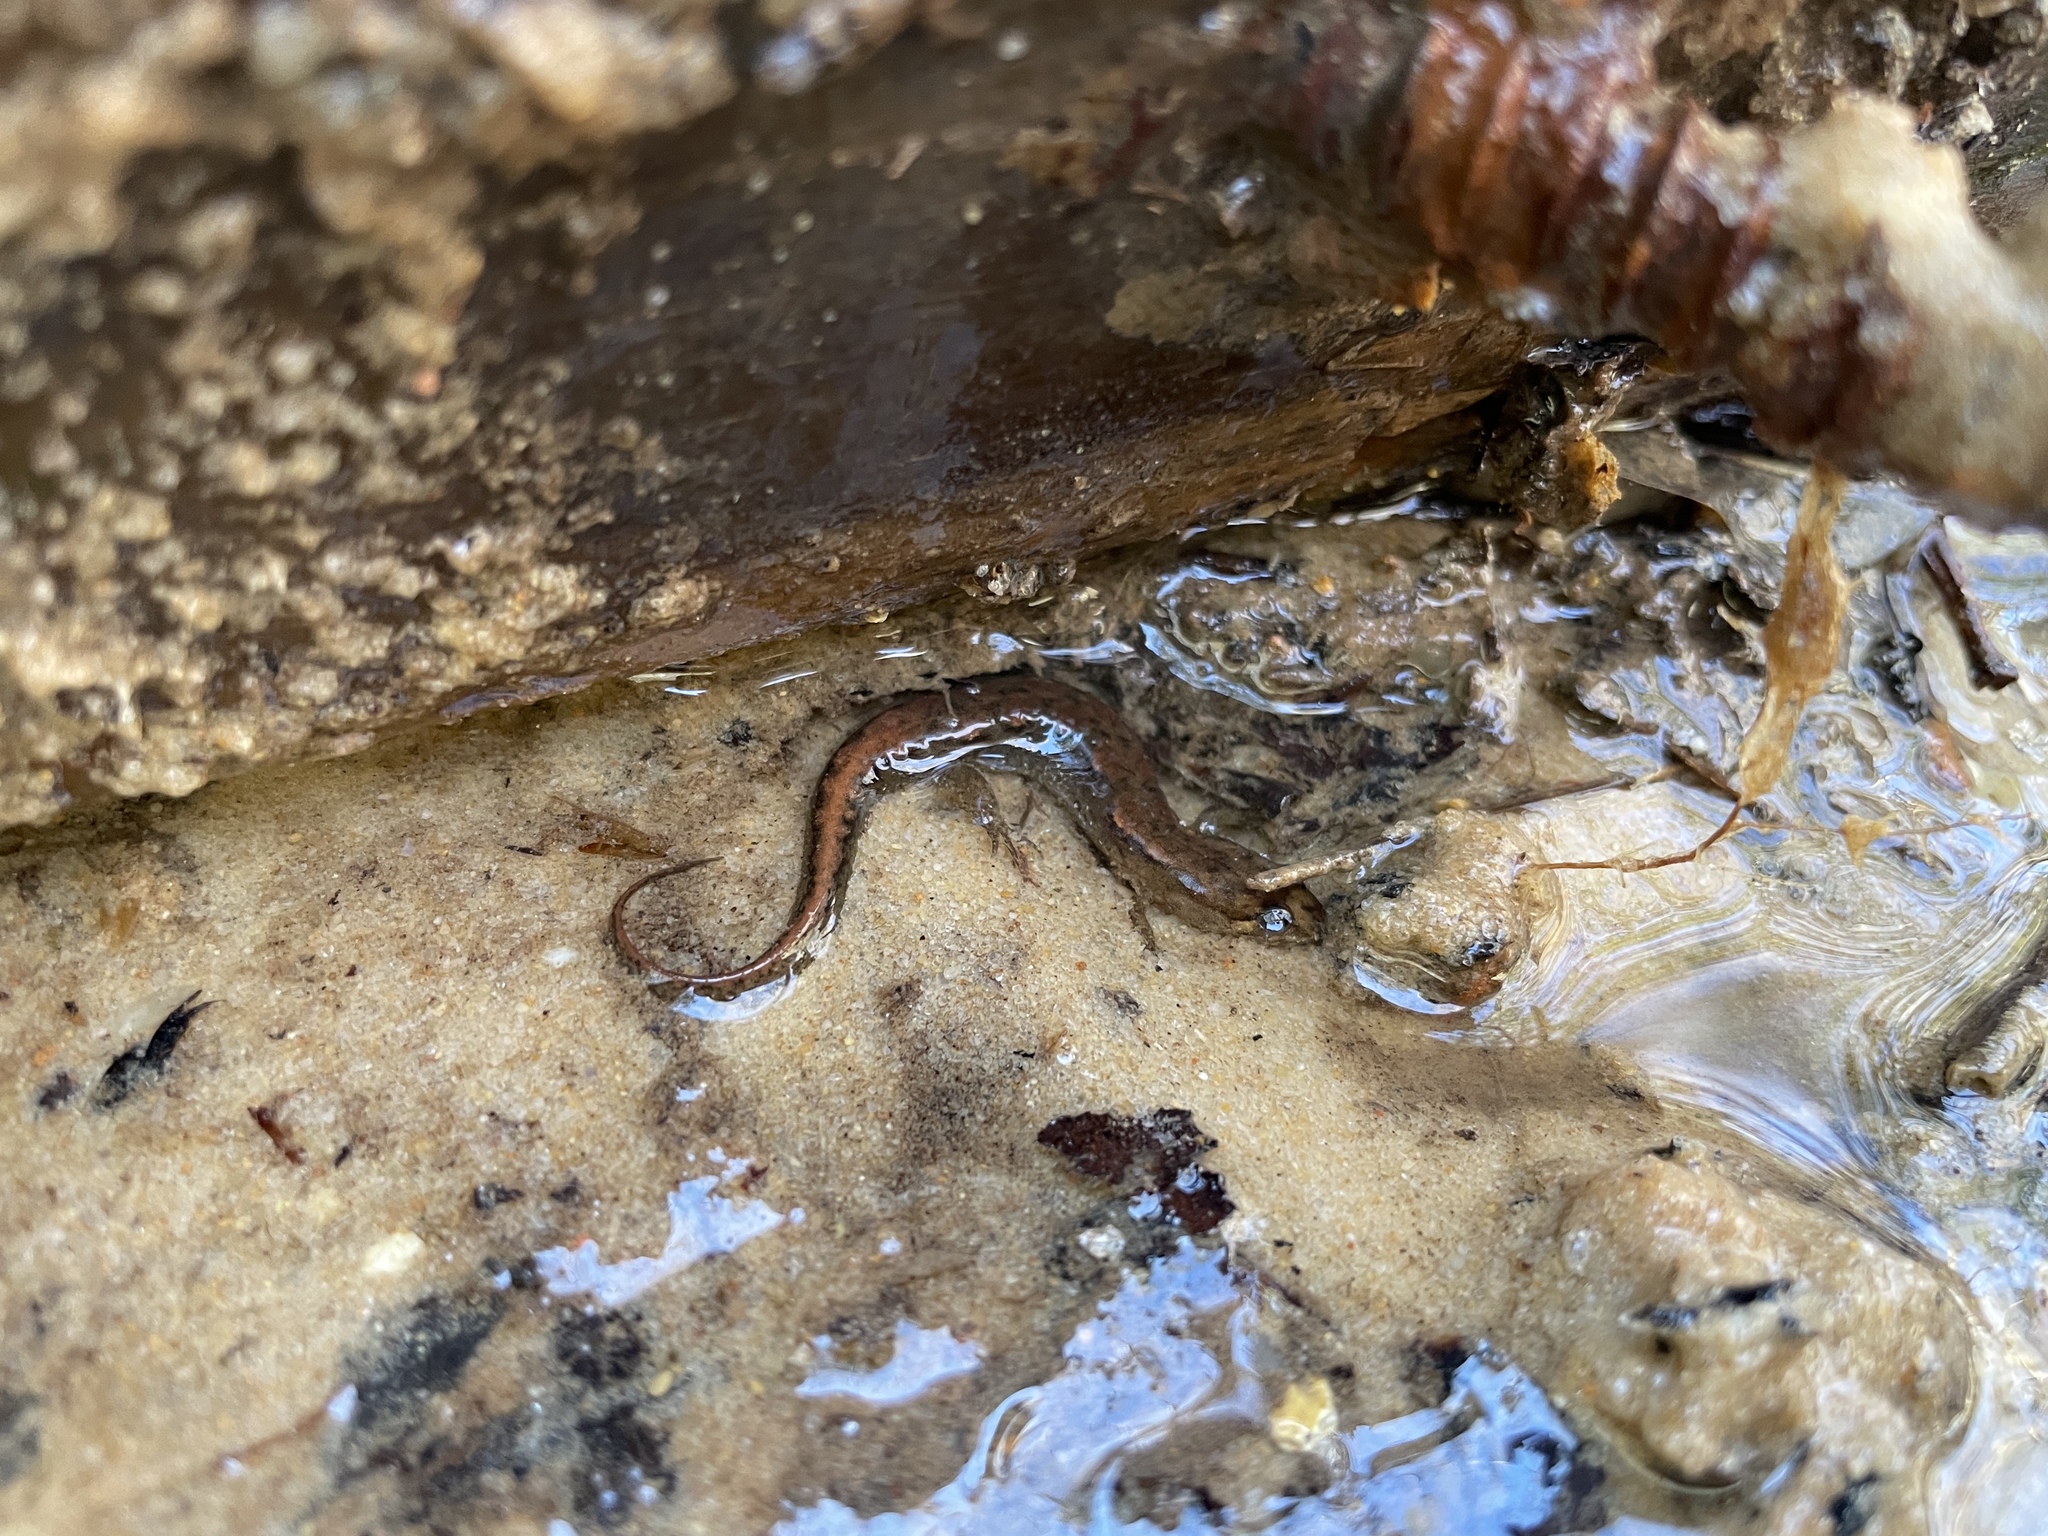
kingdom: Animalia
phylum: Chordata
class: Amphibia
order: Caudata
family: Plethodontidae
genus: Desmognathus
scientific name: Desmognathus conanti
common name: Spotted dusky salamander
